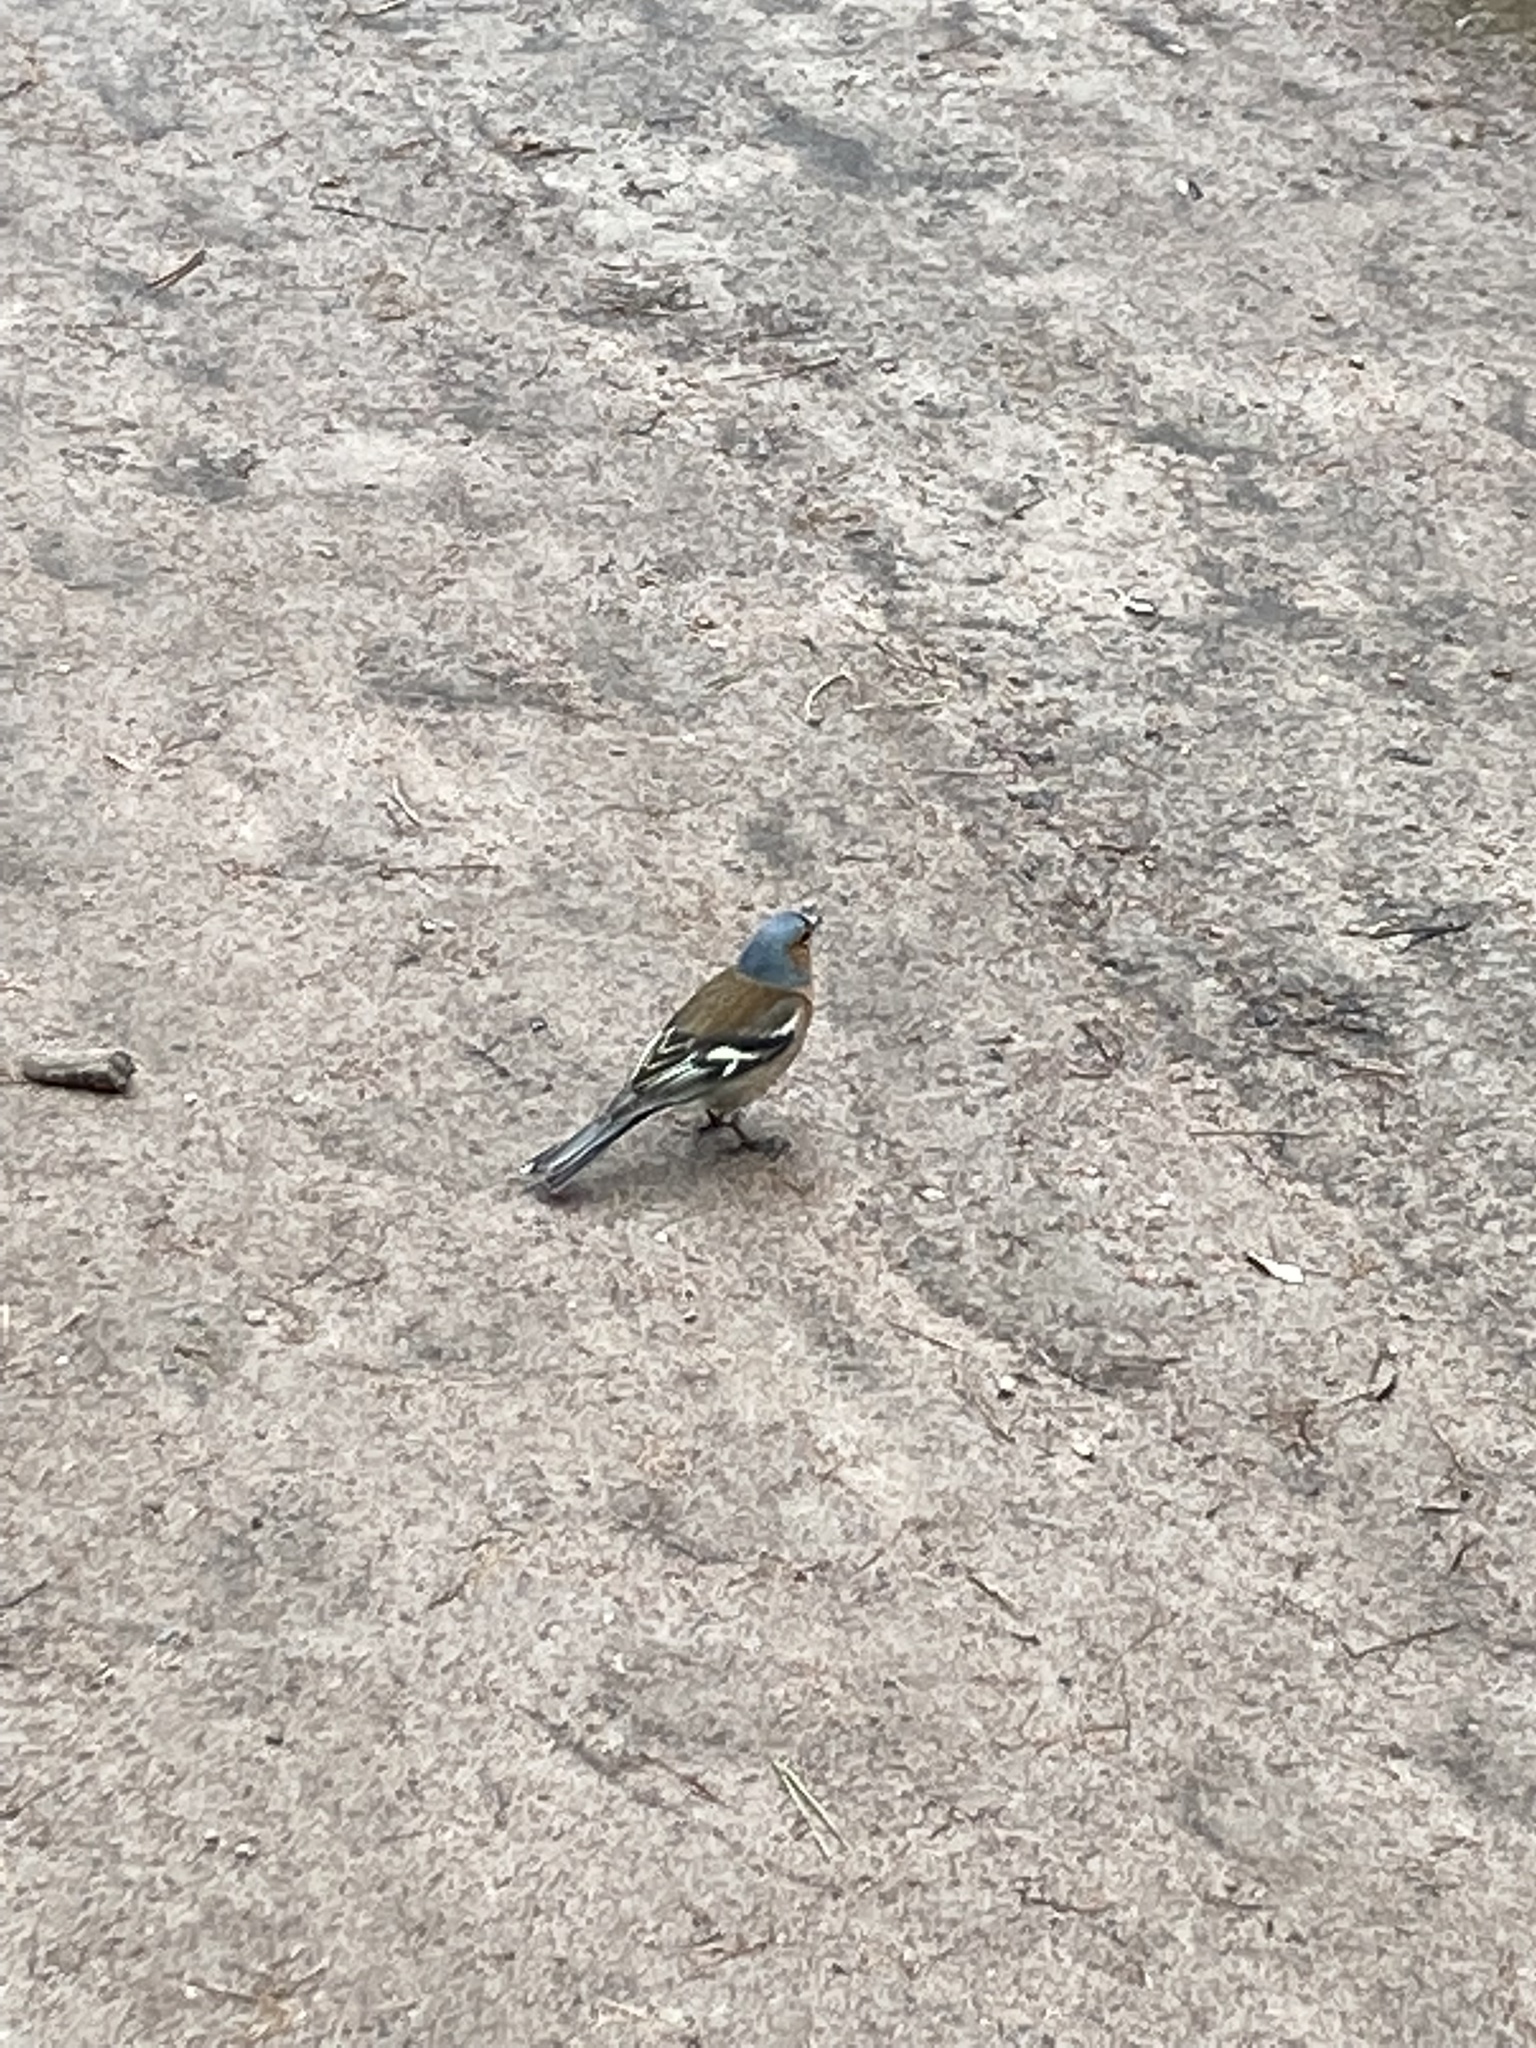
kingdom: Animalia
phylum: Chordata
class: Aves
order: Passeriformes
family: Fringillidae
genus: Fringilla
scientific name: Fringilla coelebs
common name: Common chaffinch
